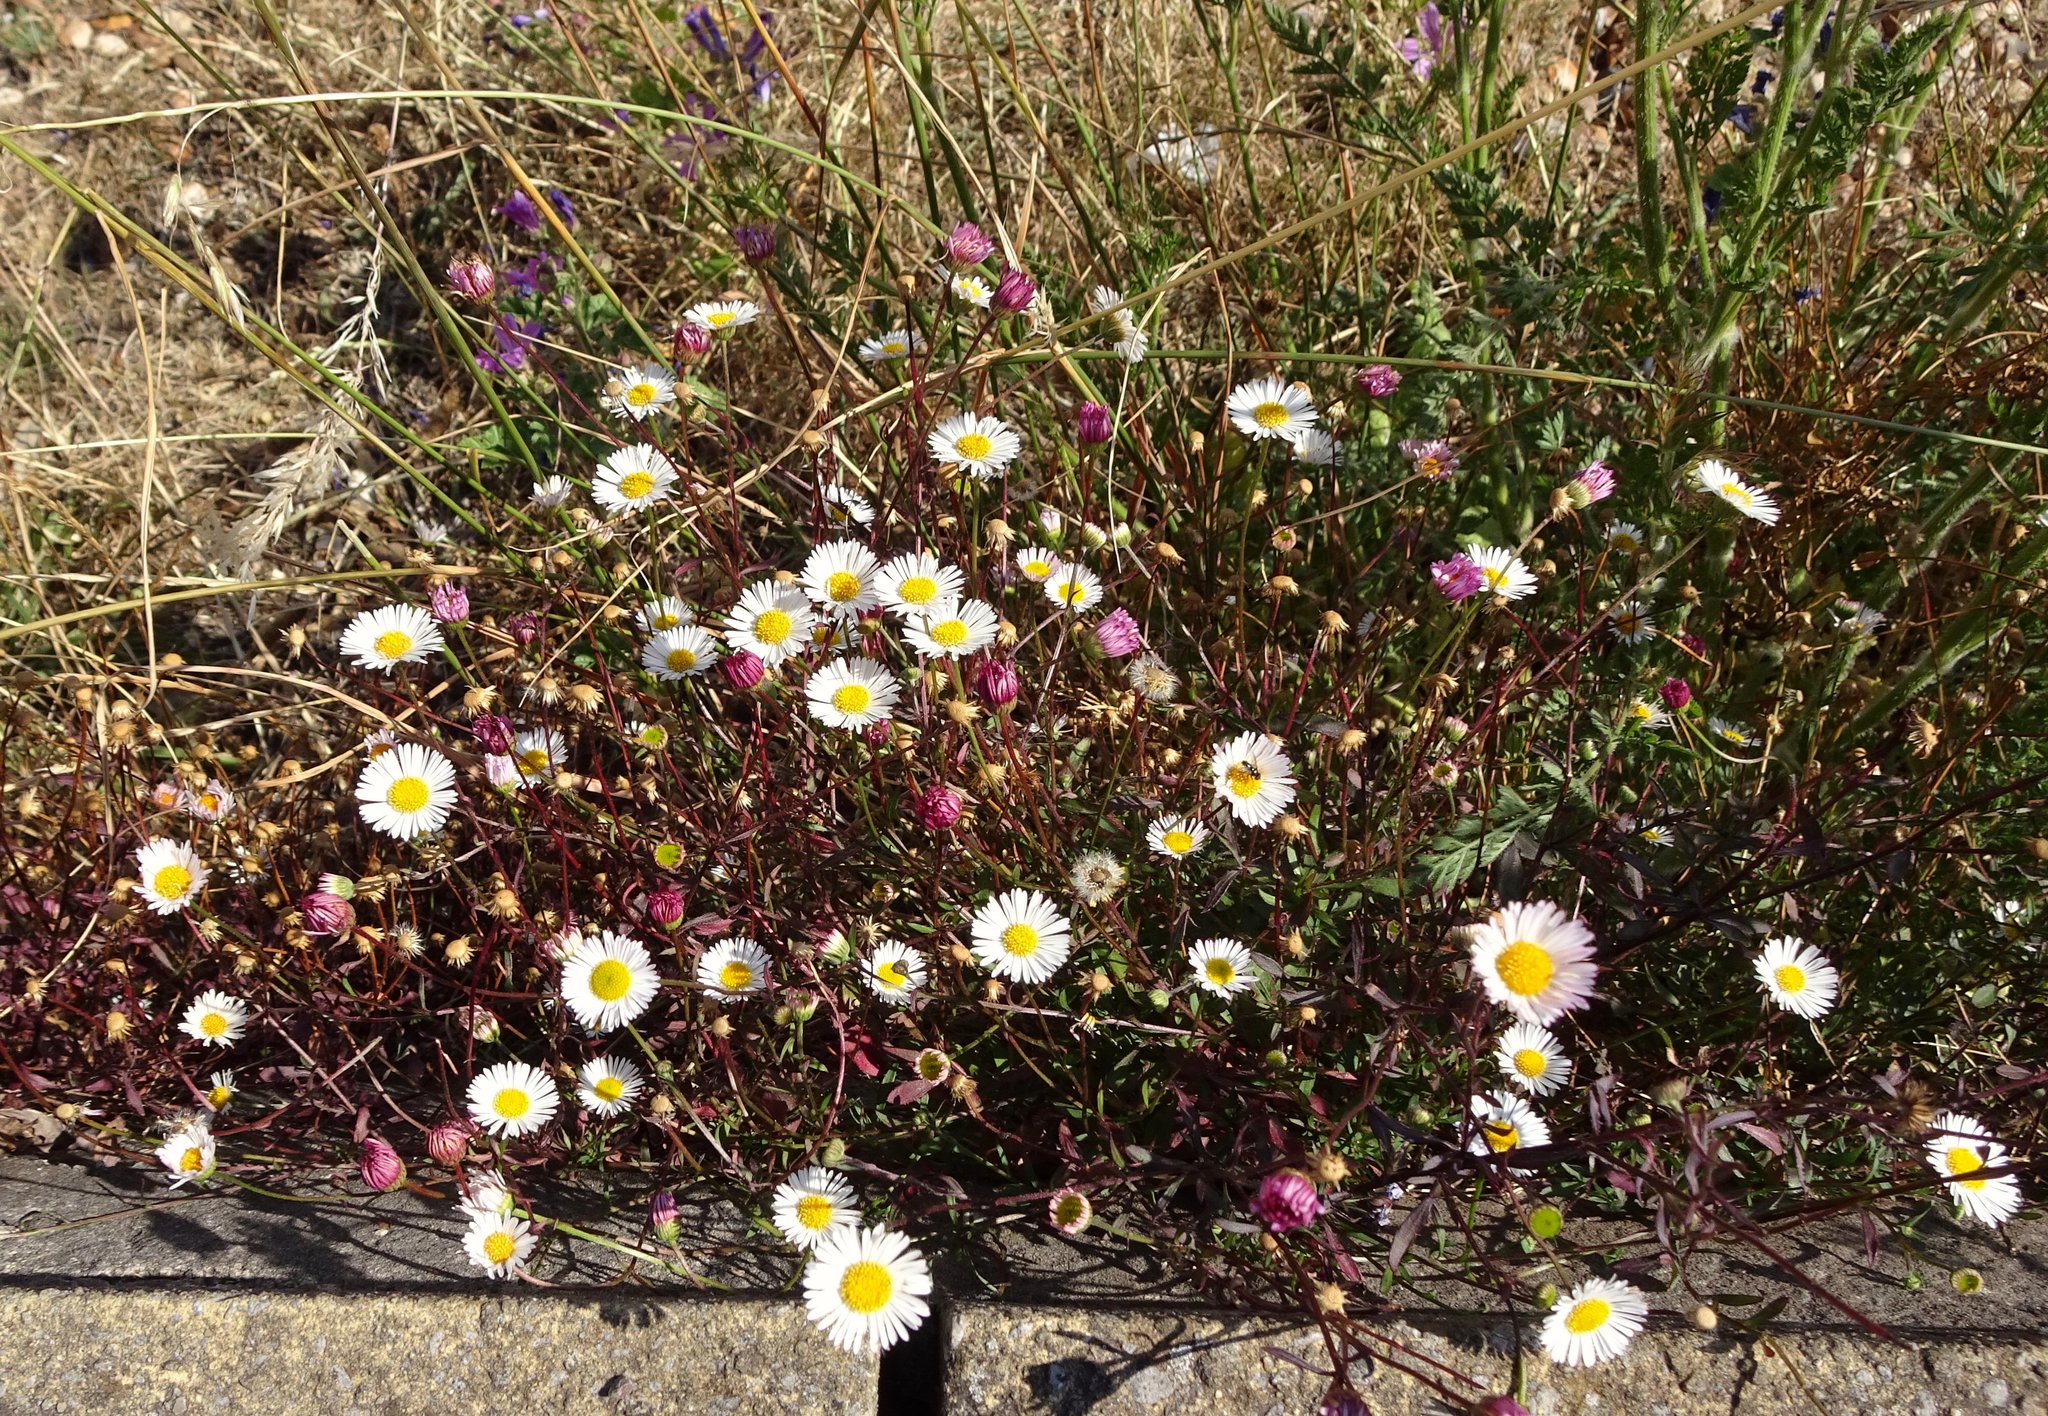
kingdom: Plantae
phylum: Tracheophyta
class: Magnoliopsida
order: Asterales
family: Asteraceae
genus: Erigeron
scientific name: Erigeron karvinskianus
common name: Mexican fleabane
